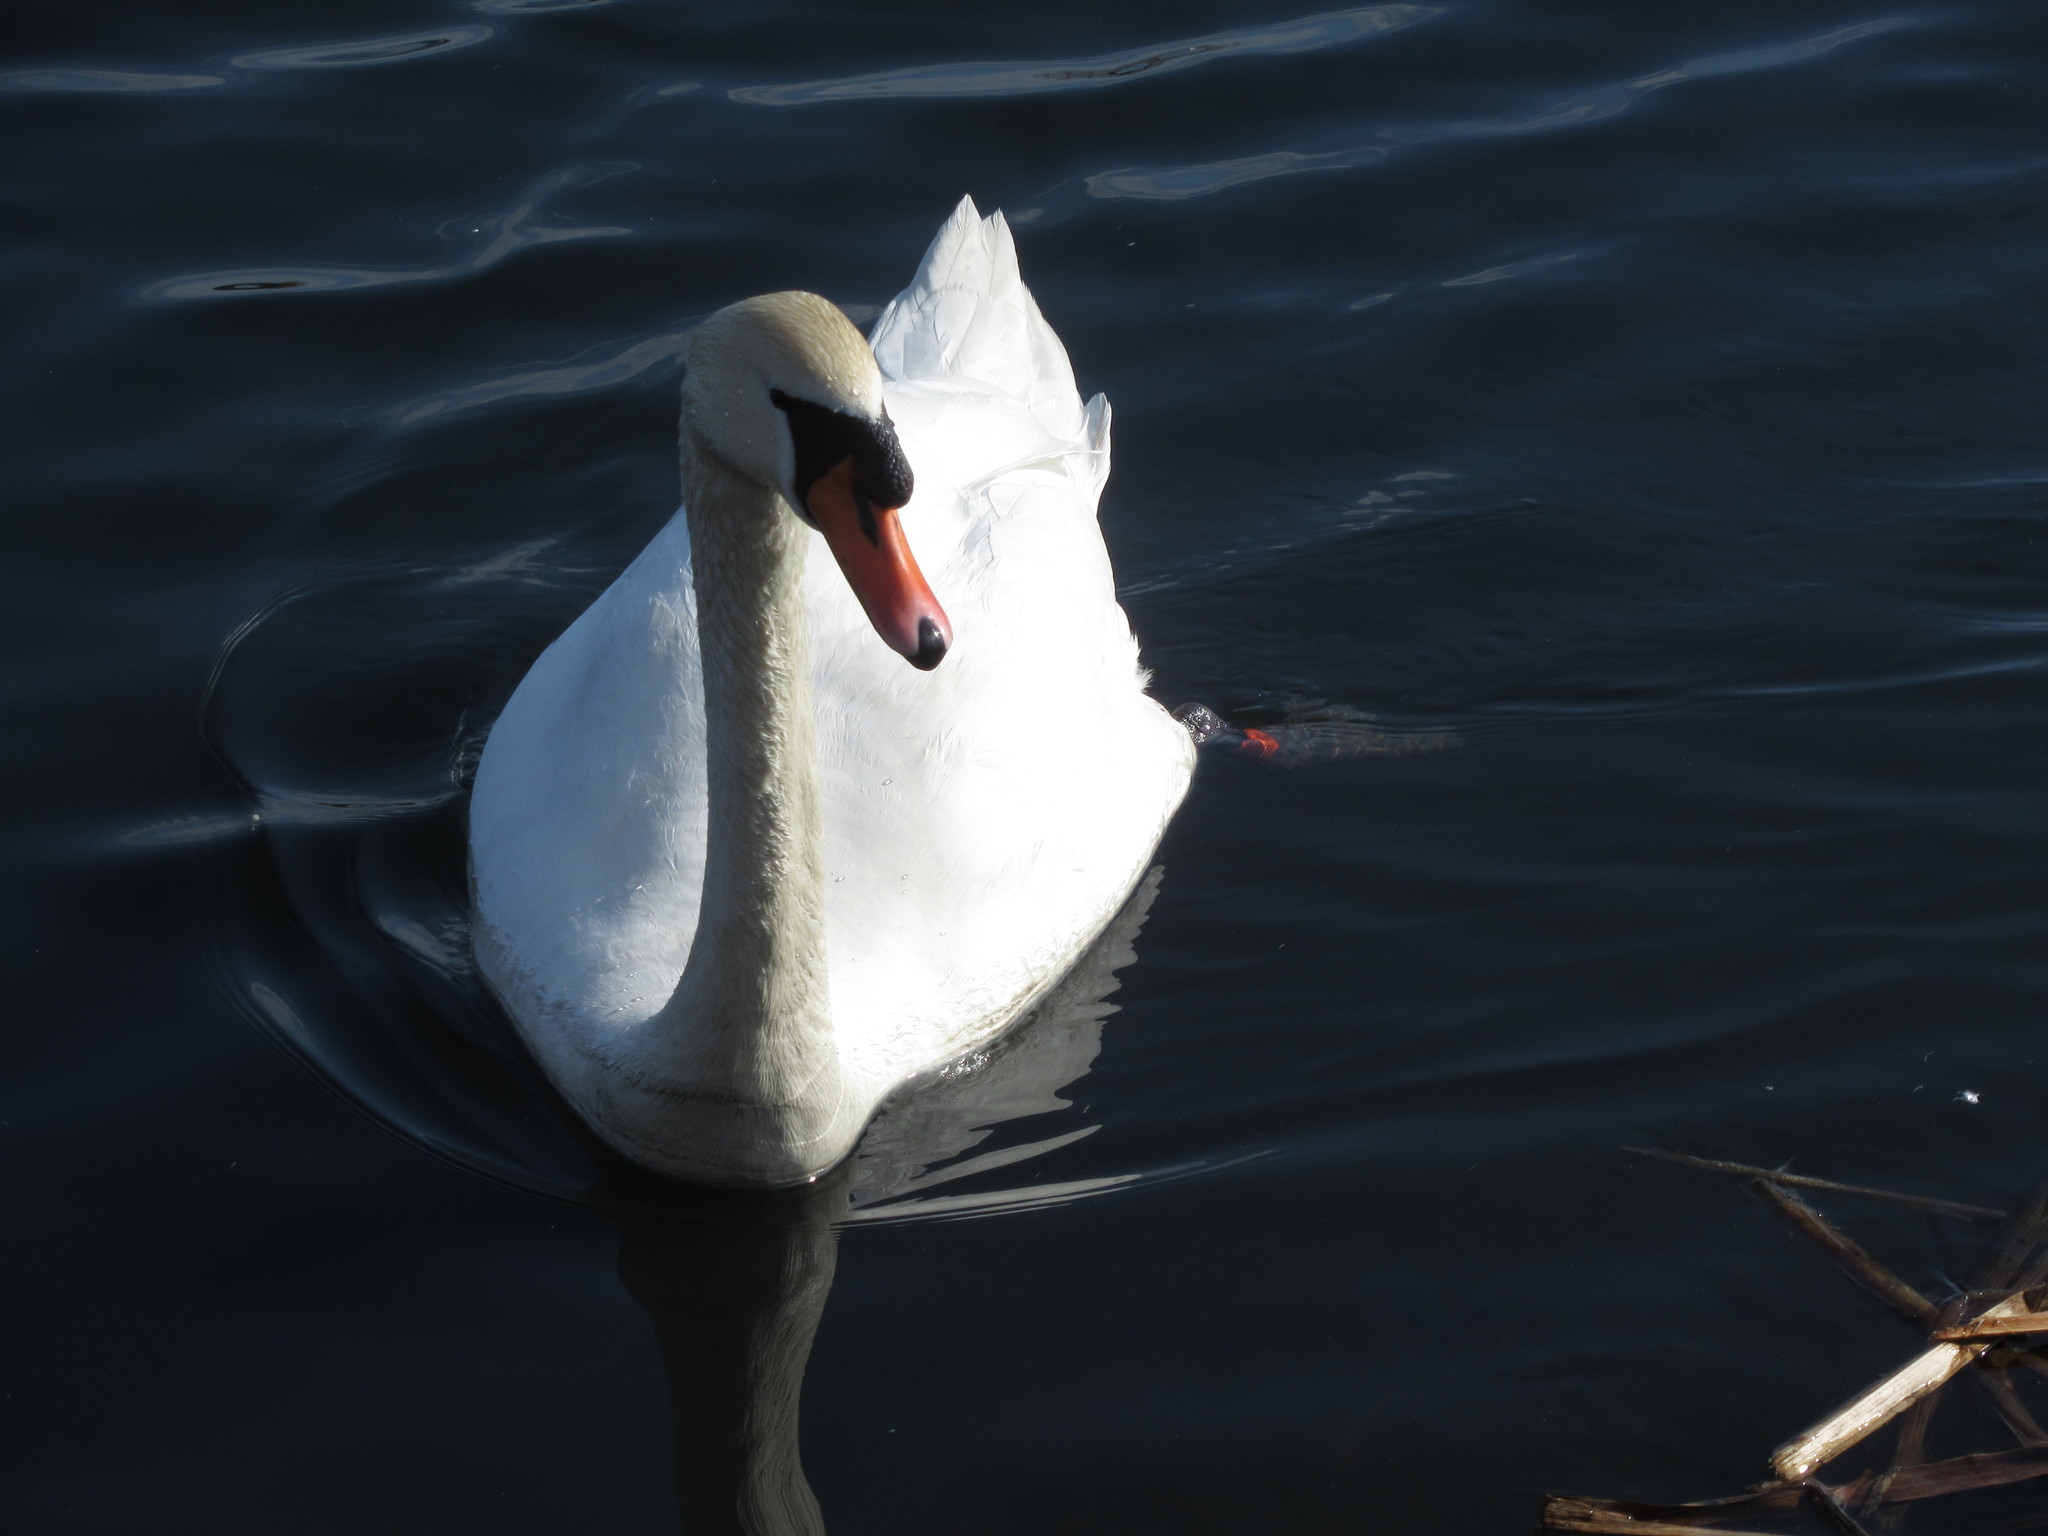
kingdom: Animalia
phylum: Chordata
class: Aves
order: Anseriformes
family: Anatidae
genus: Cygnus
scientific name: Cygnus olor
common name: Mute swan
